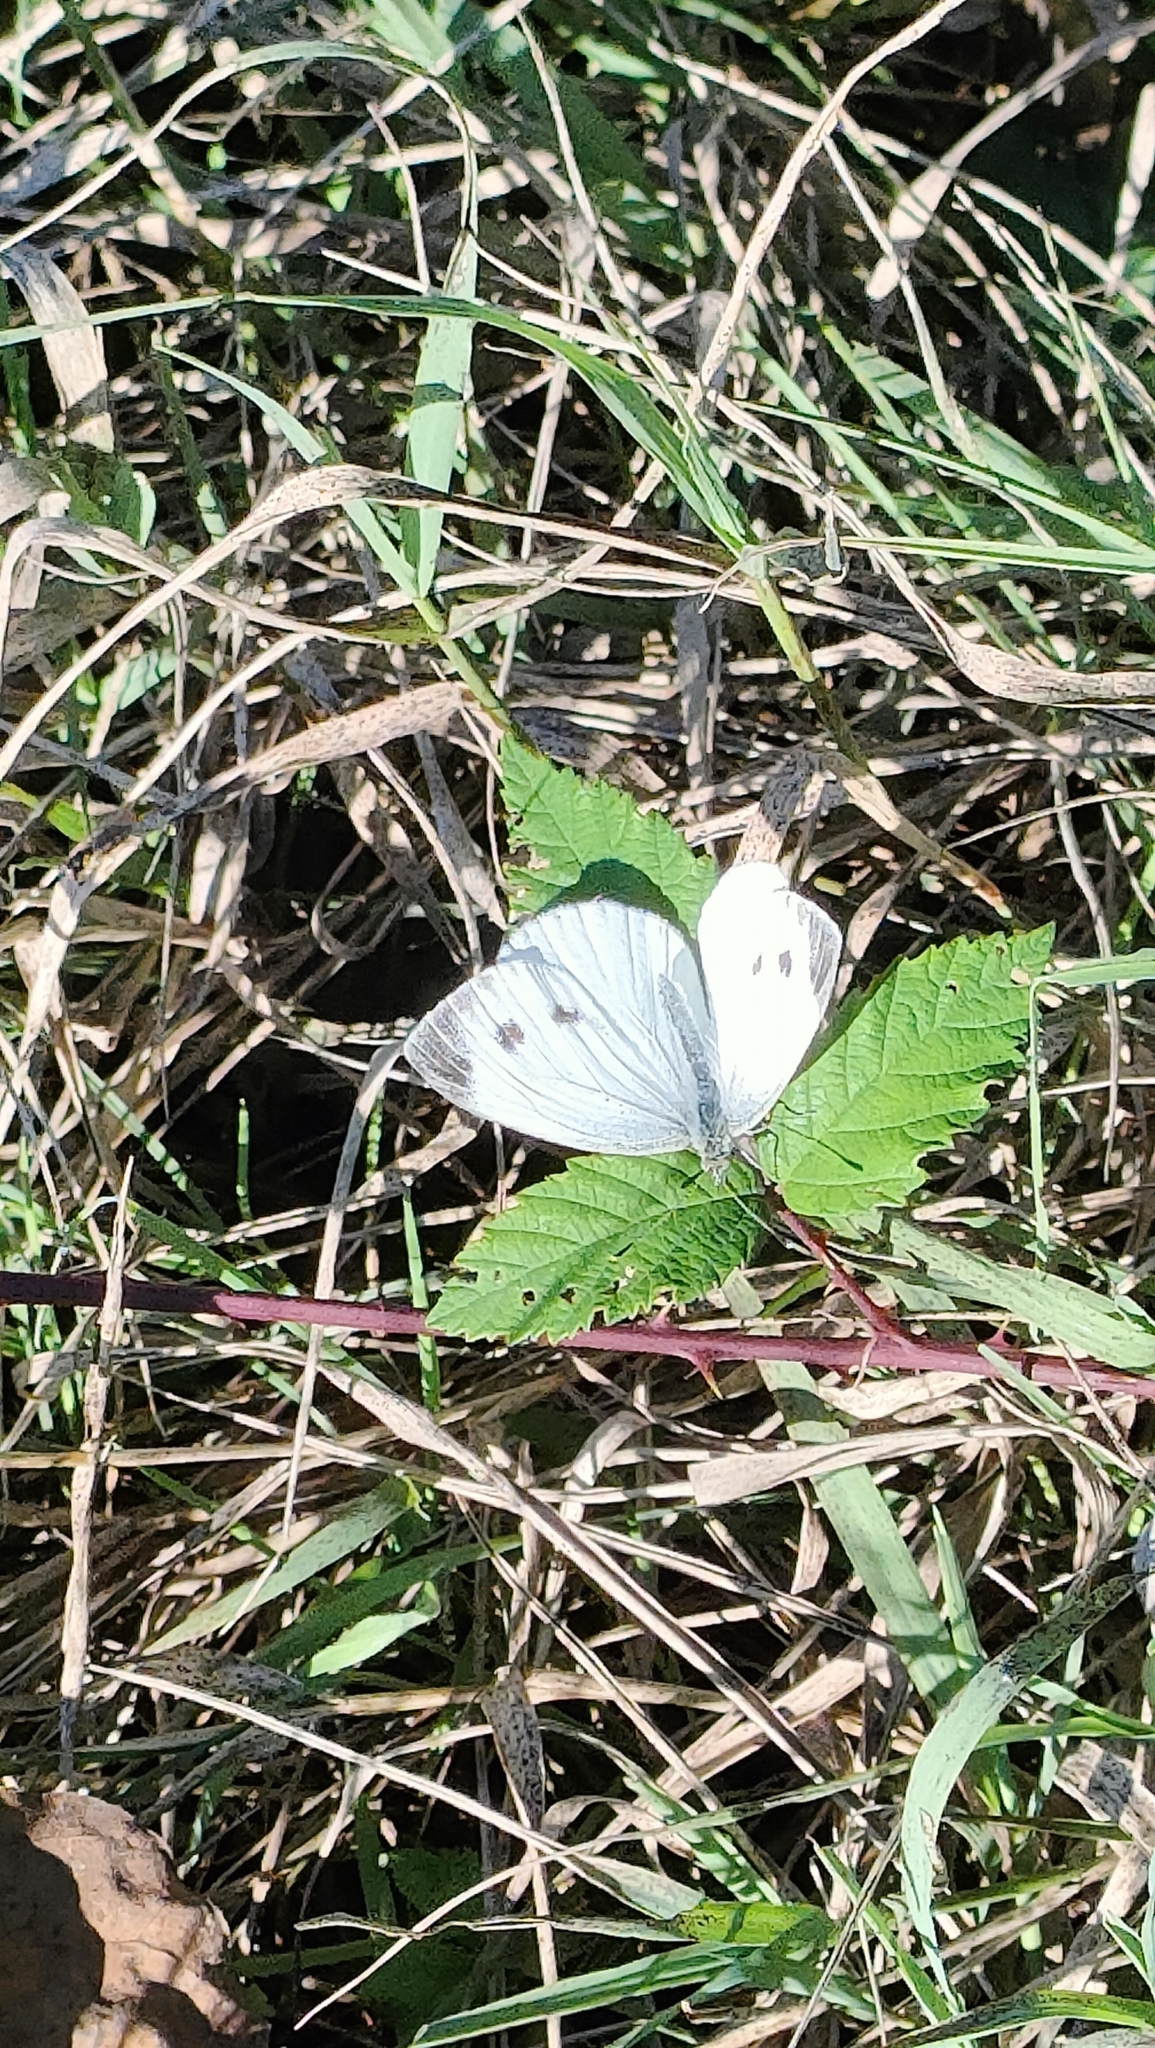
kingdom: Animalia
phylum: Arthropoda
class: Insecta
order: Lepidoptera
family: Pieridae
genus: Pieris
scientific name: Pieris napi
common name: Green-veined white
